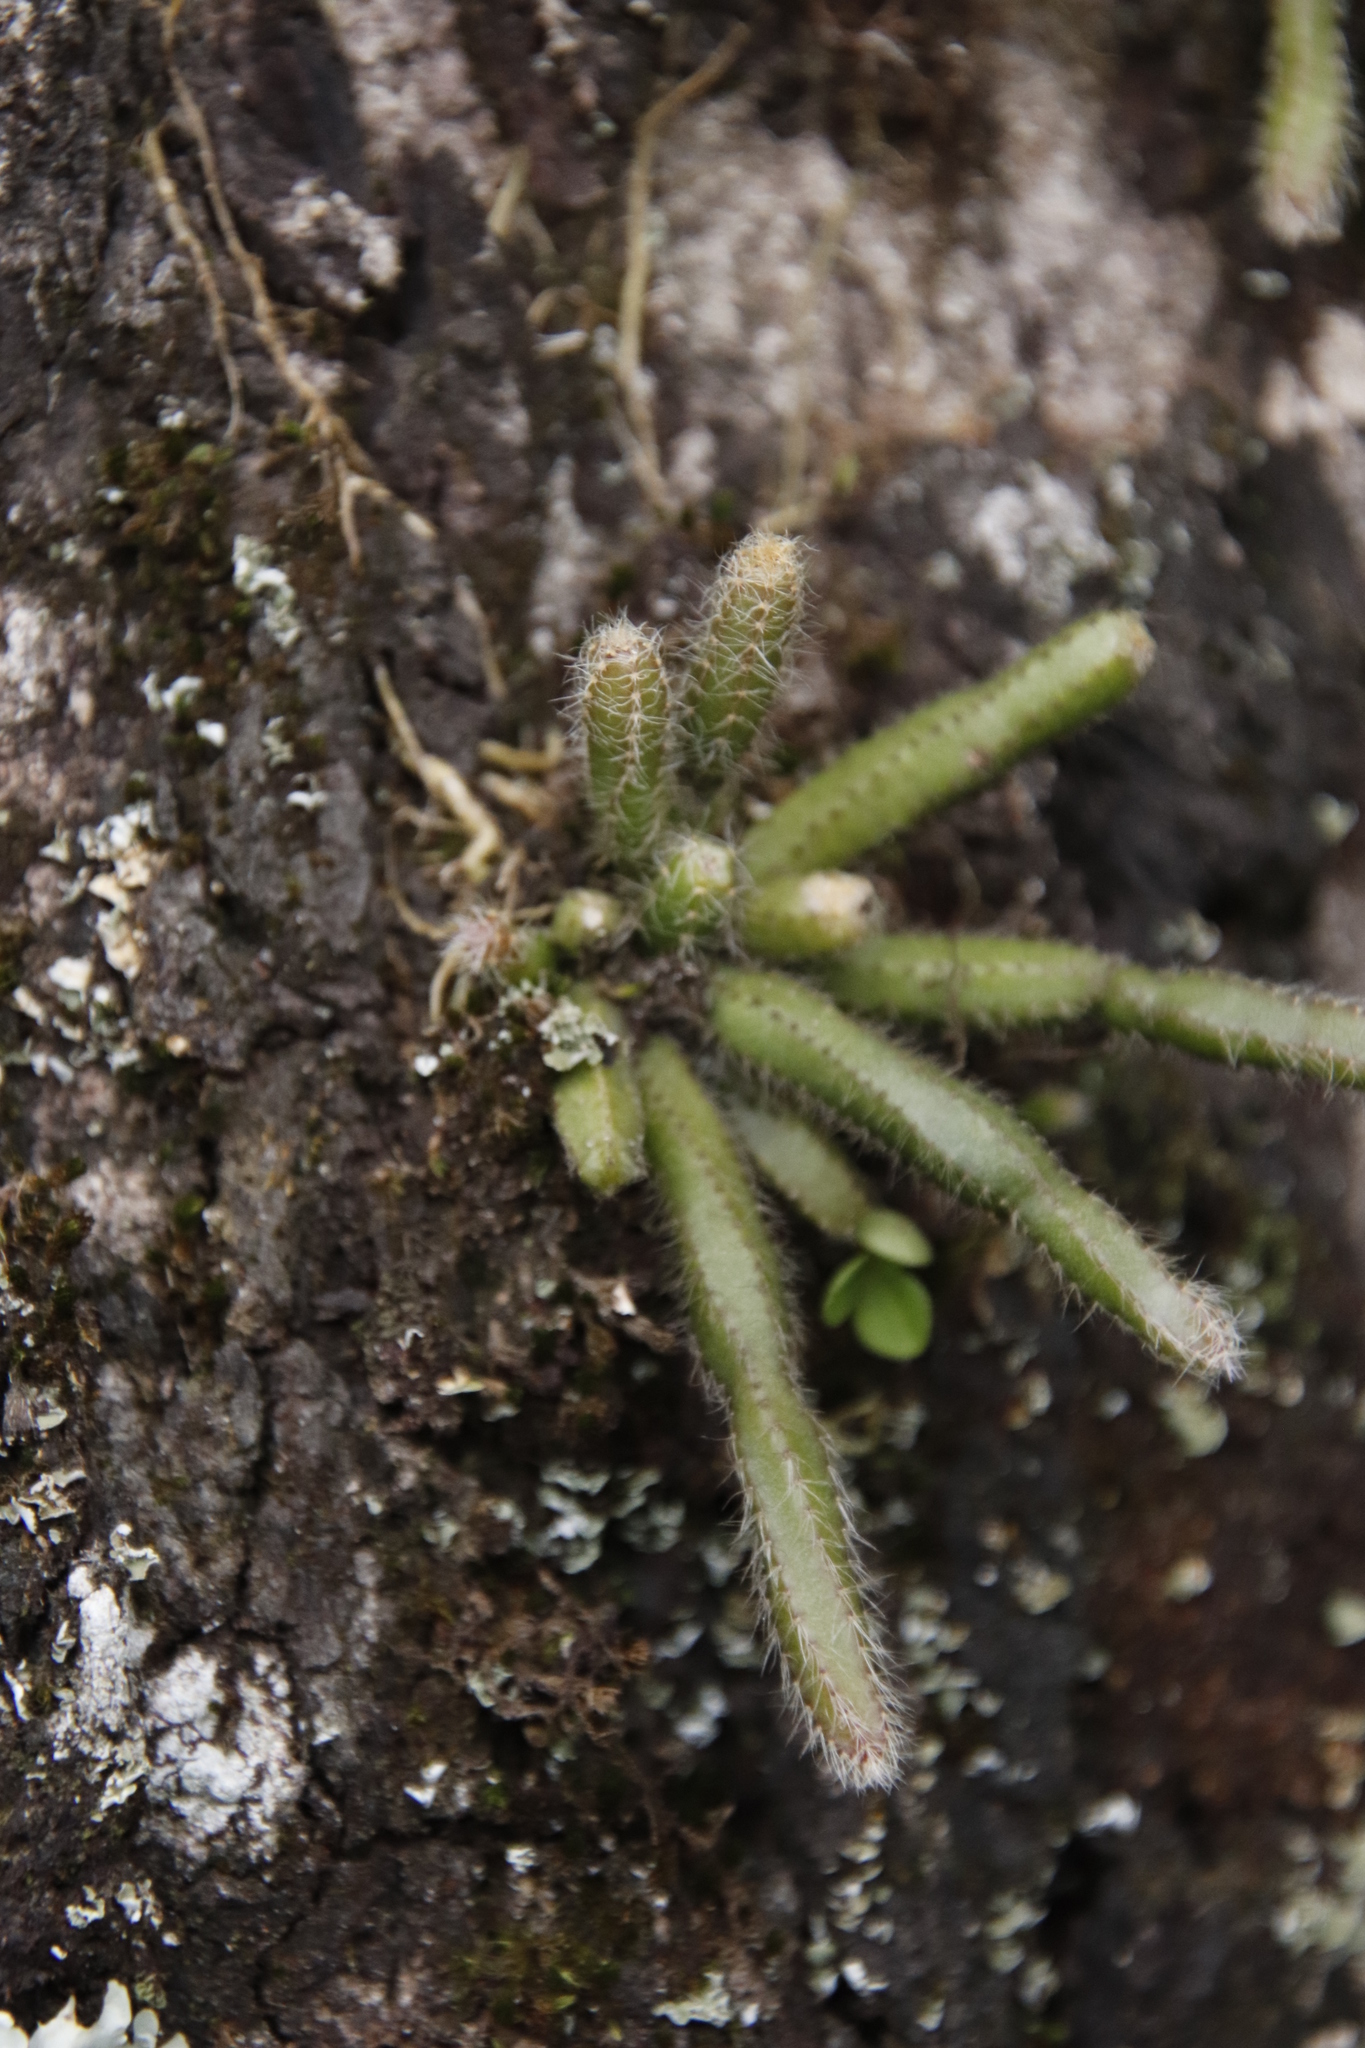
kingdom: Plantae
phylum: Tracheophyta
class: Magnoliopsida
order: Caryophyllales
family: Cactaceae
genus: Rhipsalis
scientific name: Rhipsalis baccifera
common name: Mistletoe cactus
